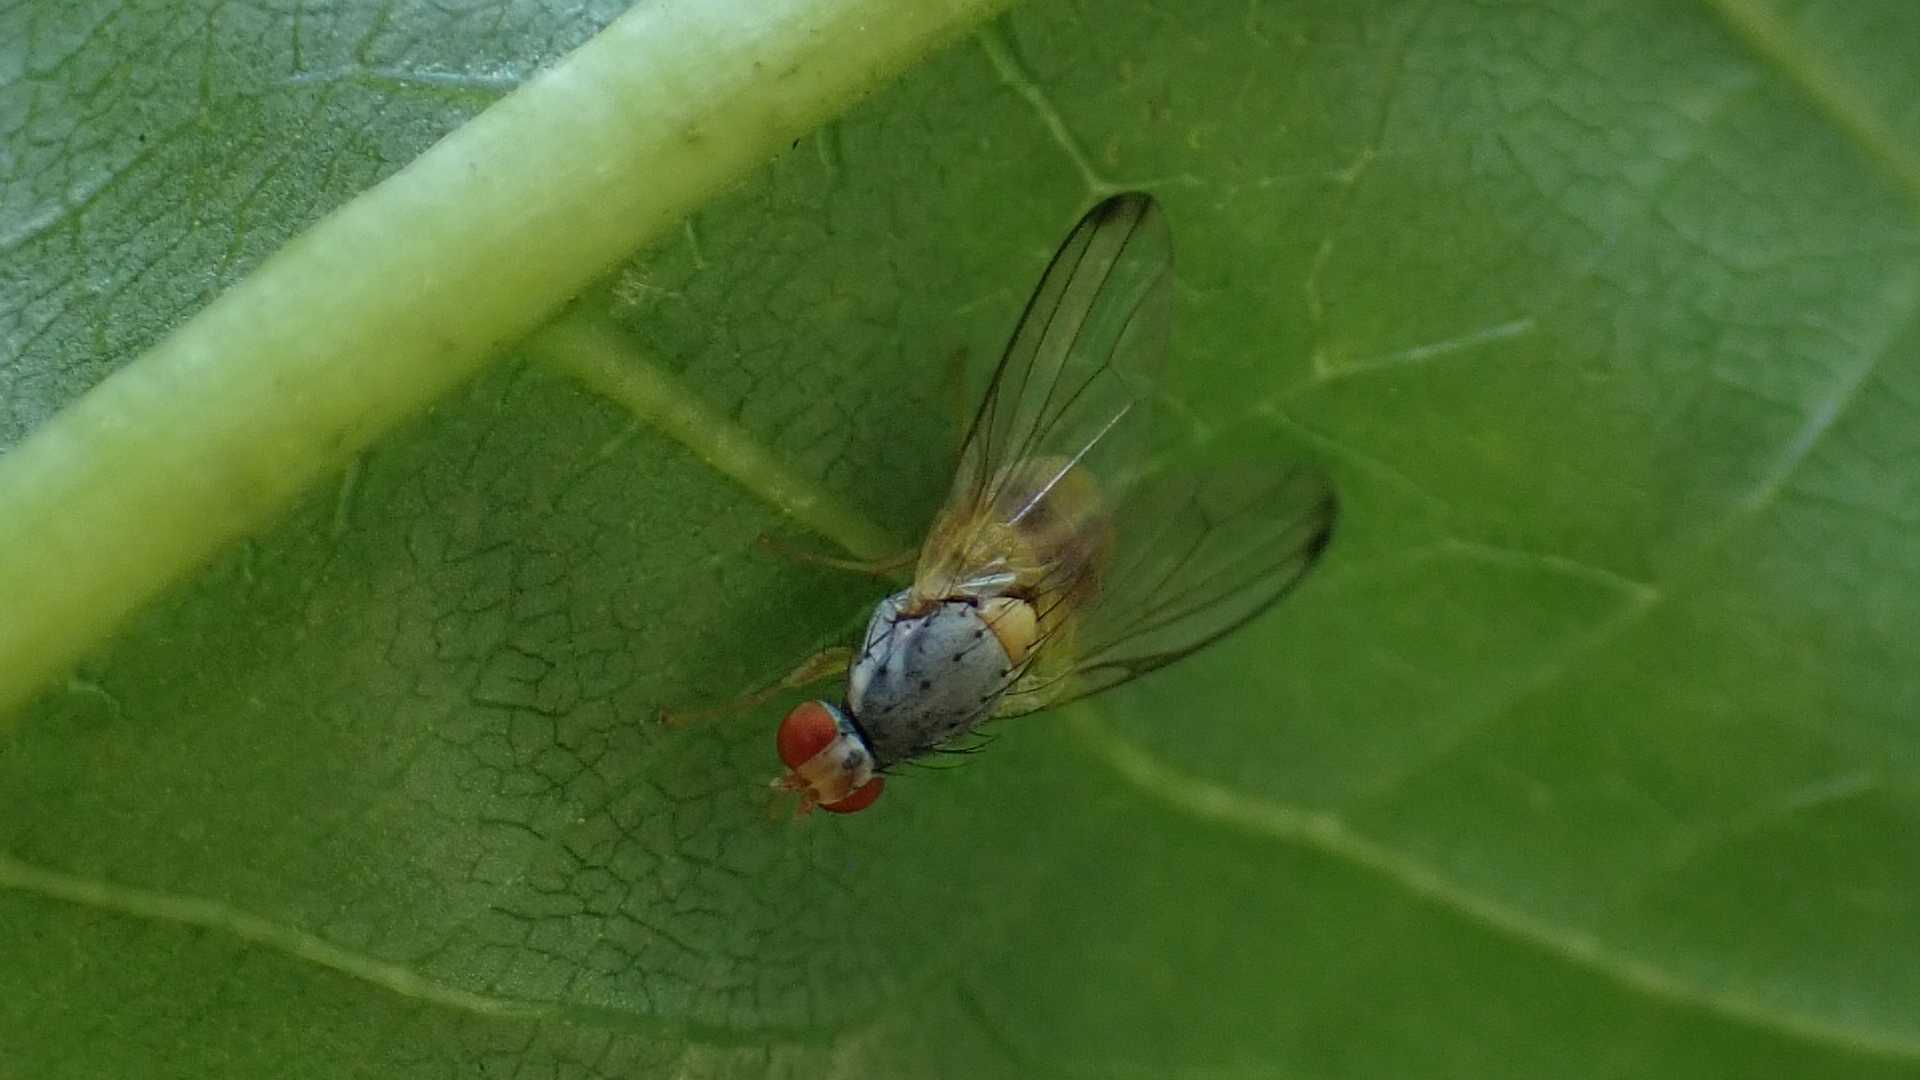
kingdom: Animalia
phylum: Arthropoda
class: Insecta
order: Diptera
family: Pallopteridae
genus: Palloptera
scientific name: Palloptera
